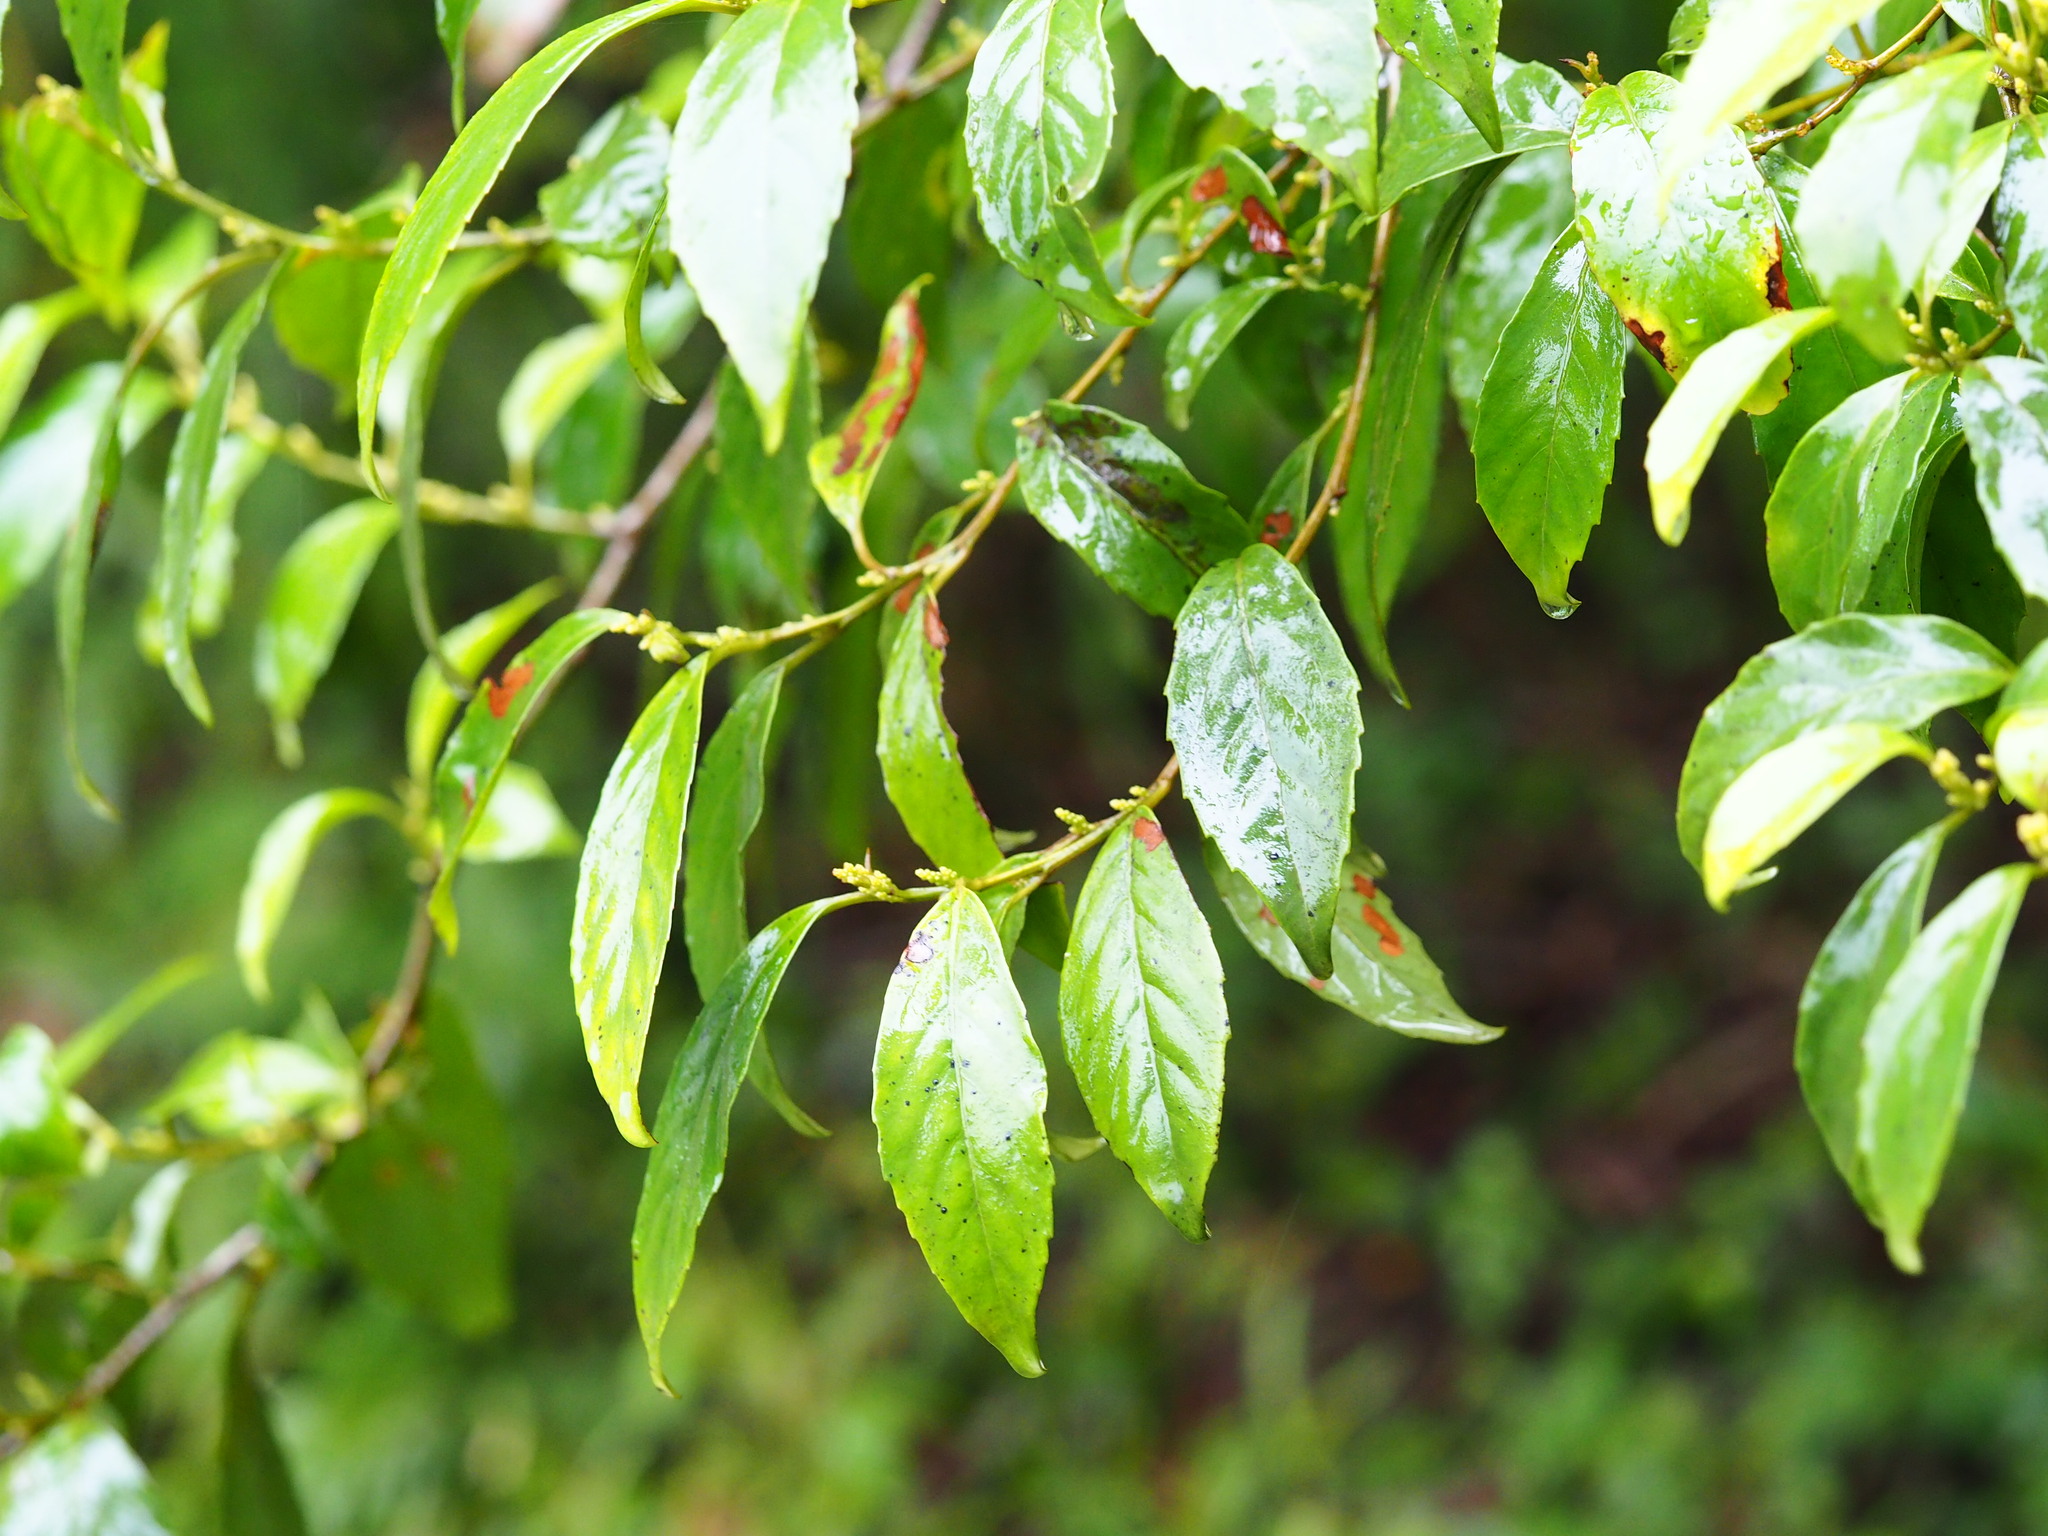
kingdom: Plantae
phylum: Tracheophyta
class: Magnoliopsida
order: Ericales
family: Primulaceae
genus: Maesa
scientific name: Maesa perlaria
